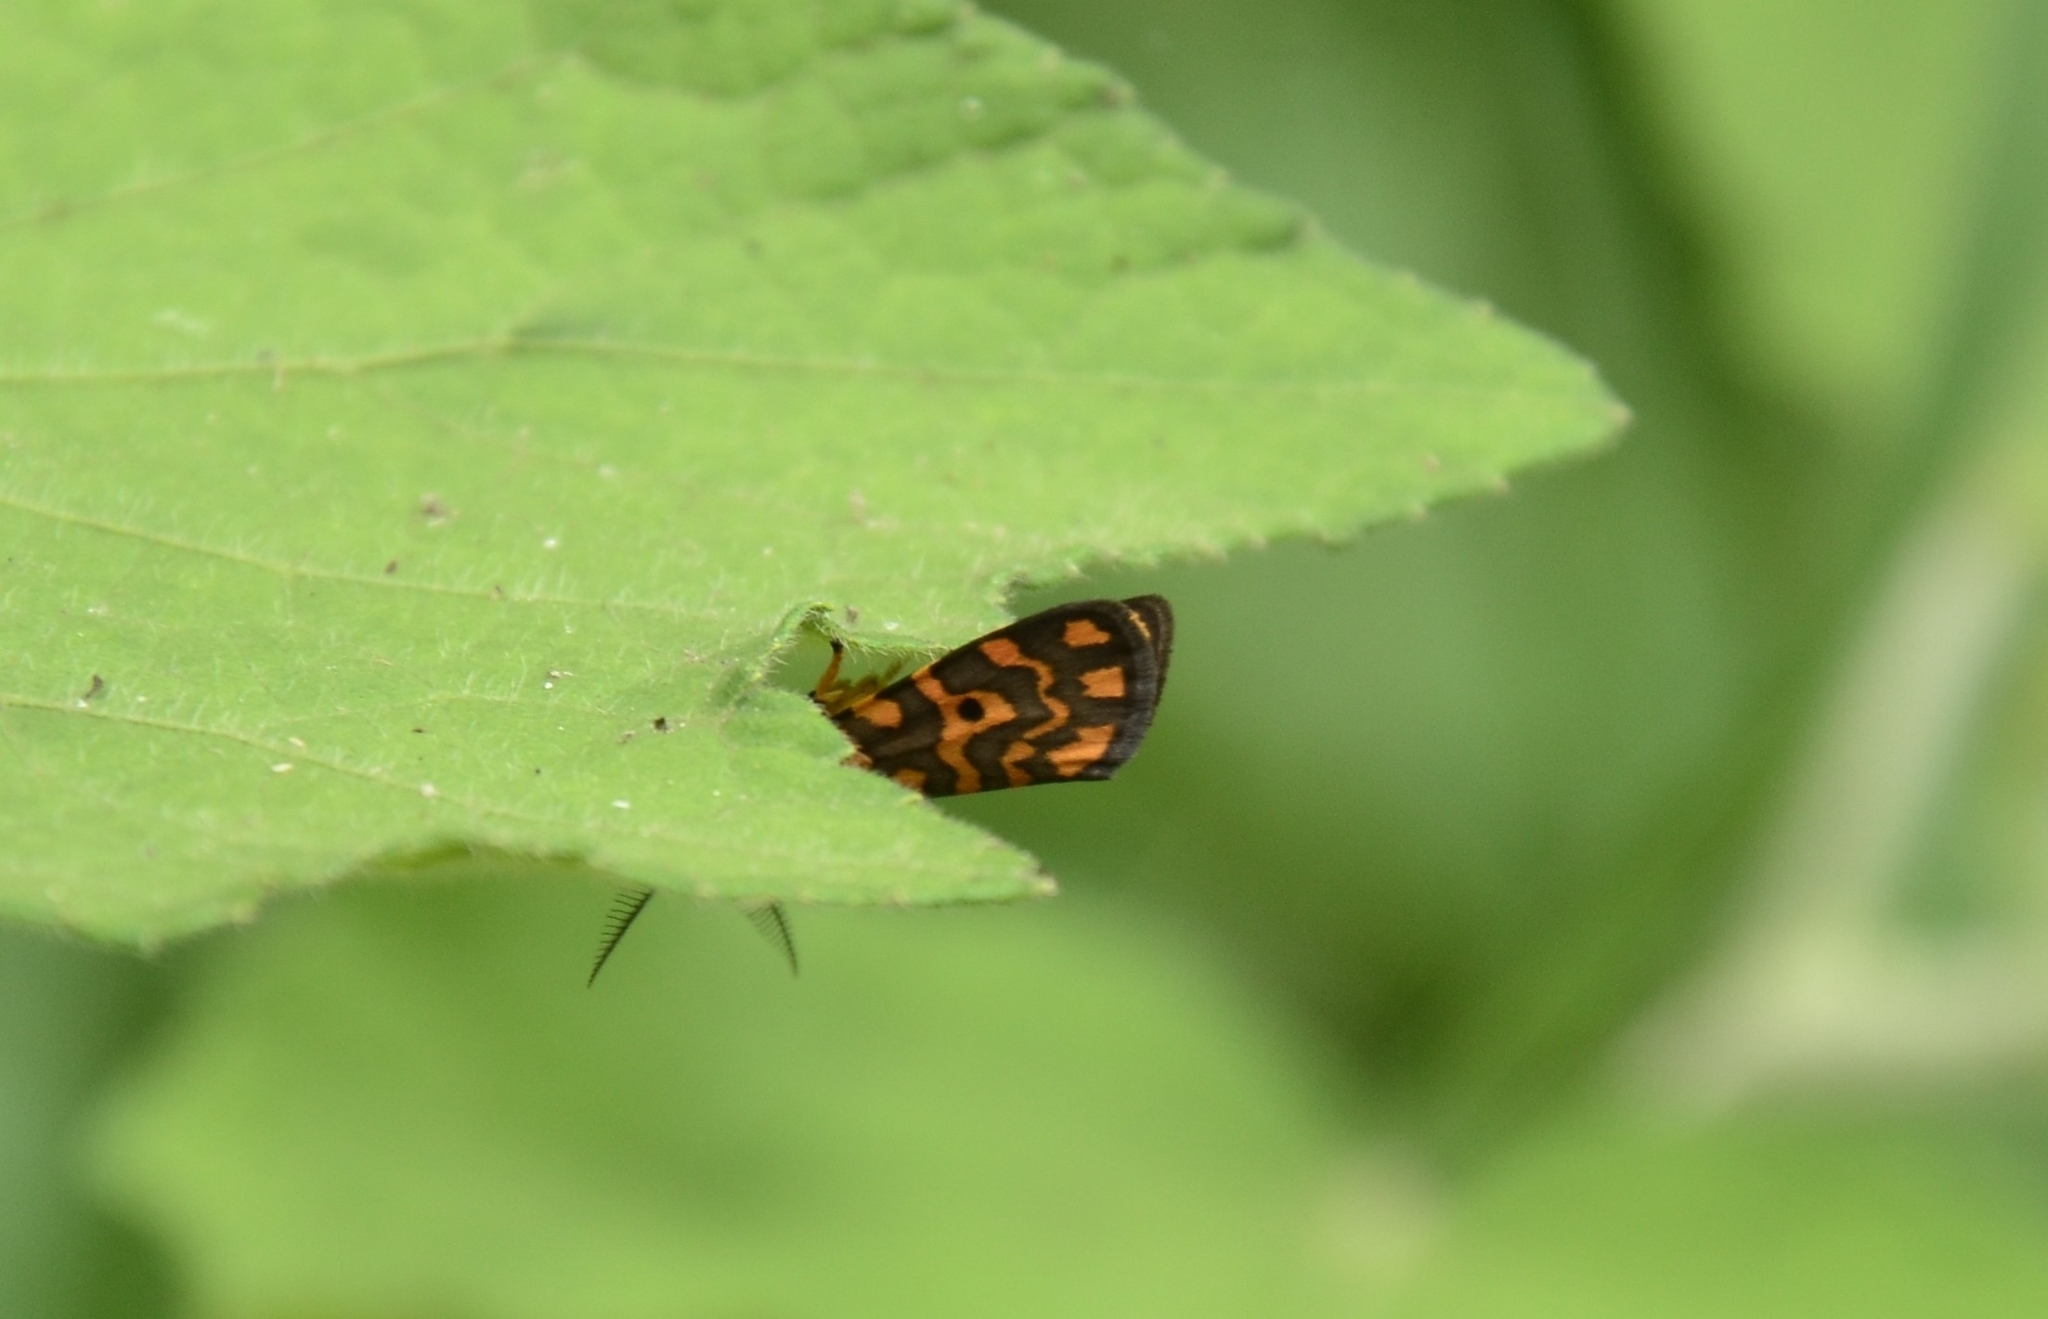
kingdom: Animalia
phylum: Arthropoda
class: Insecta
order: Lepidoptera
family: Erebidae
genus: Nepita
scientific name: Nepita conferta
